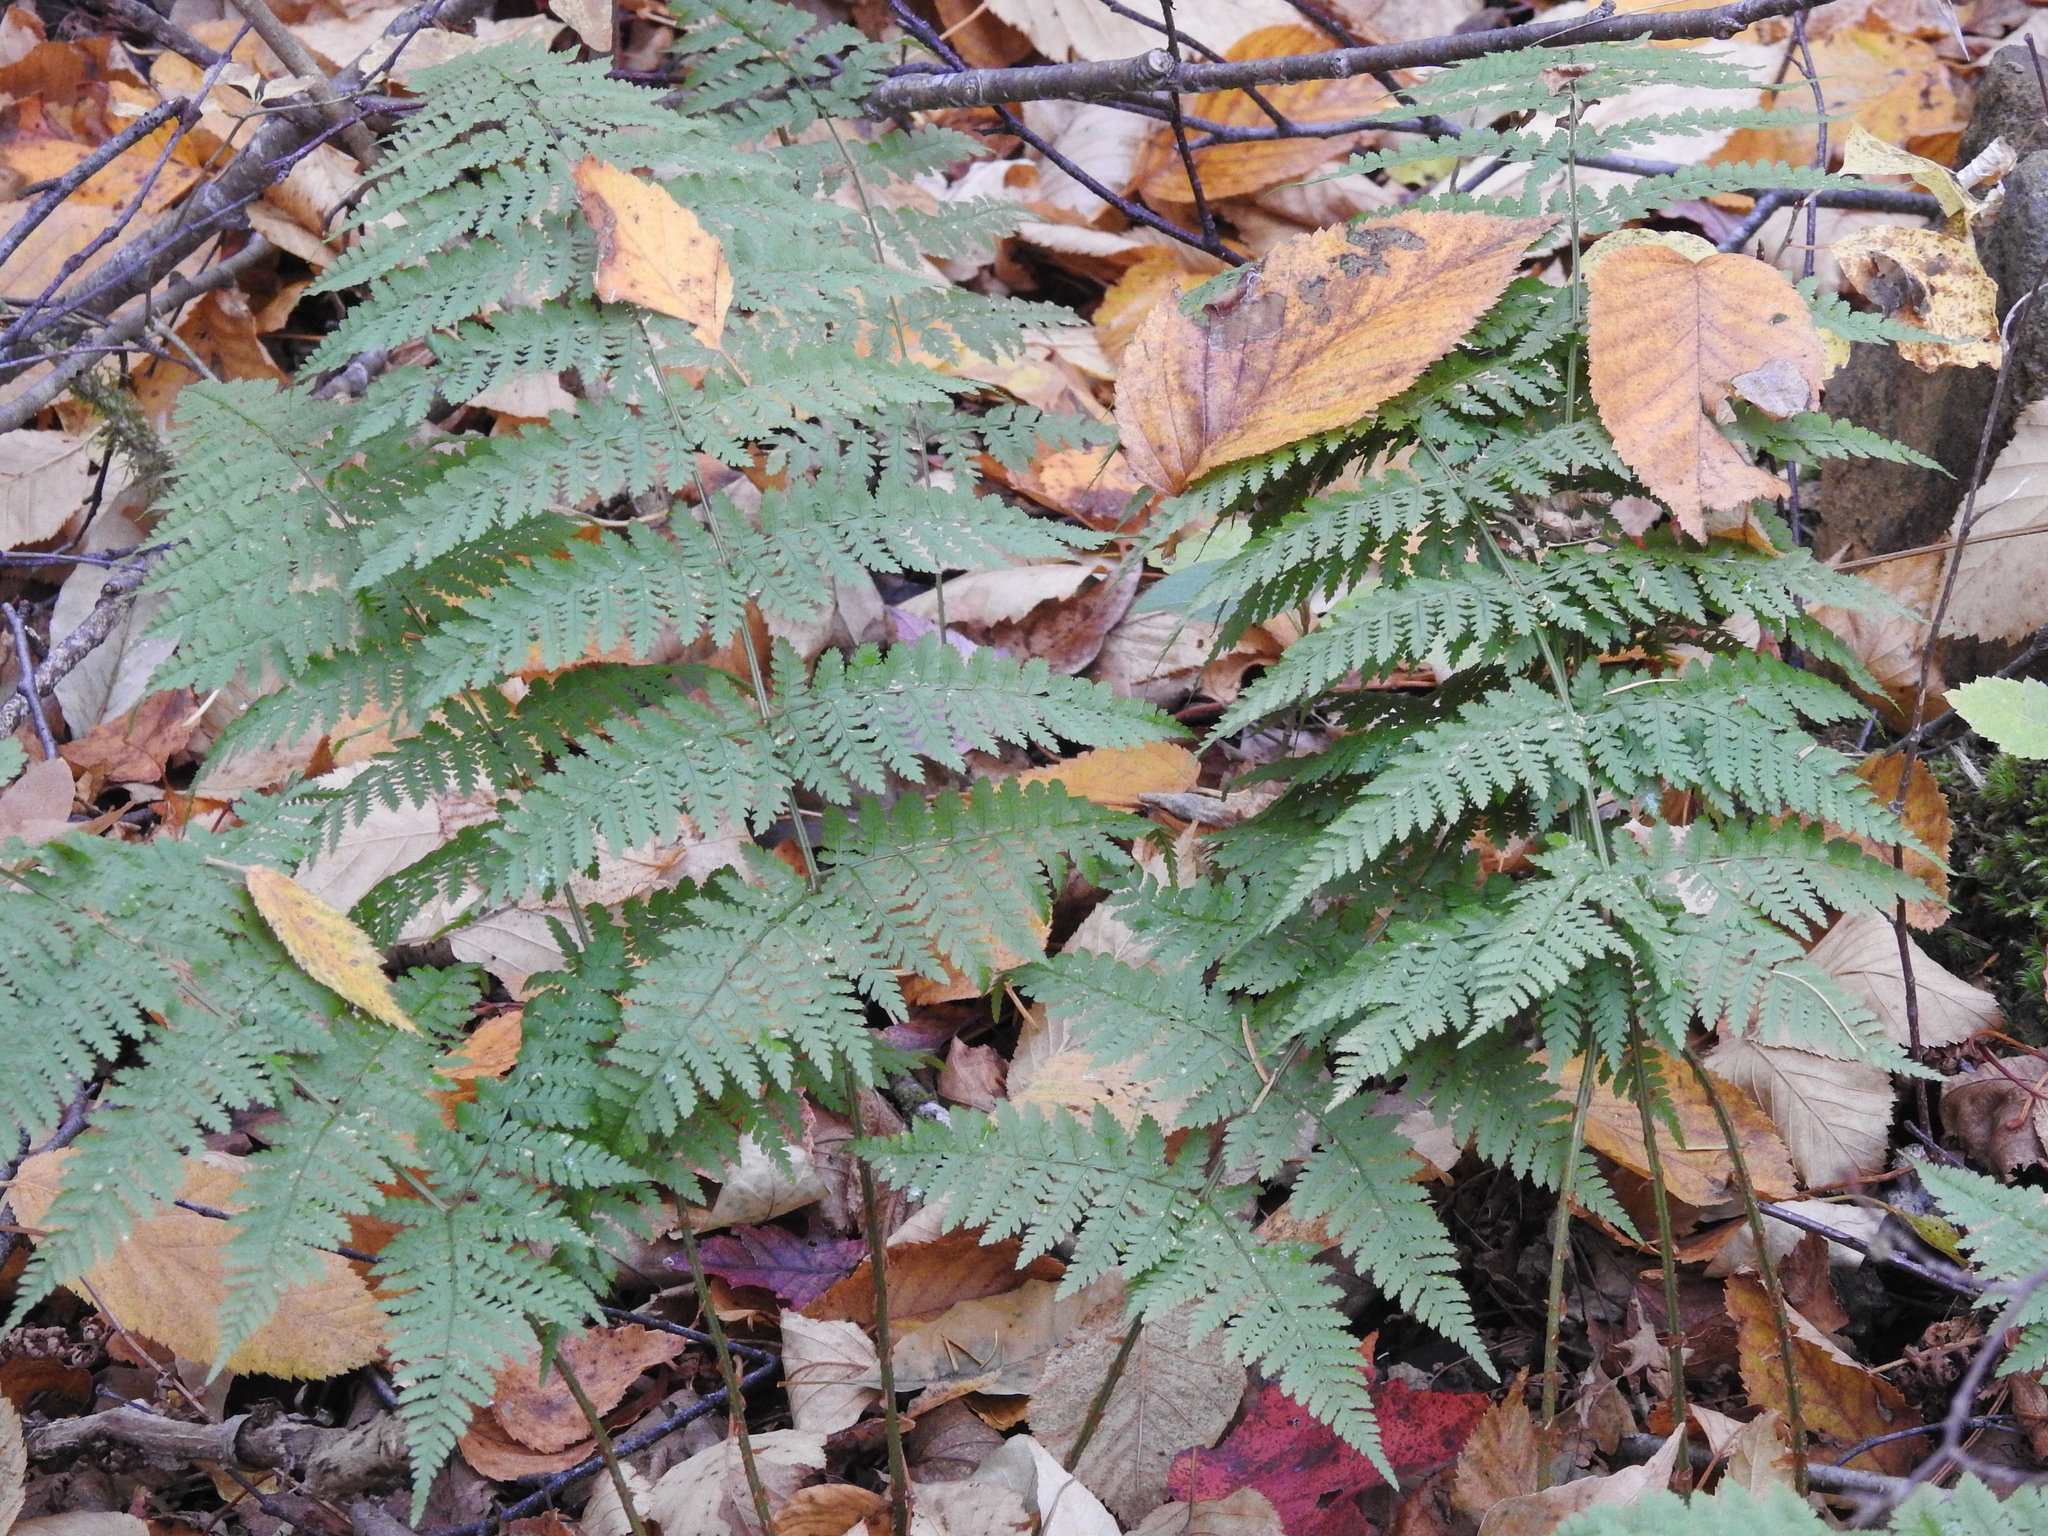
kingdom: Plantae
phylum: Tracheophyta
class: Polypodiopsida
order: Polypodiales
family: Dryopteridaceae
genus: Dryopteris
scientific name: Dryopteris intermedia
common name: Evergreen wood fern
